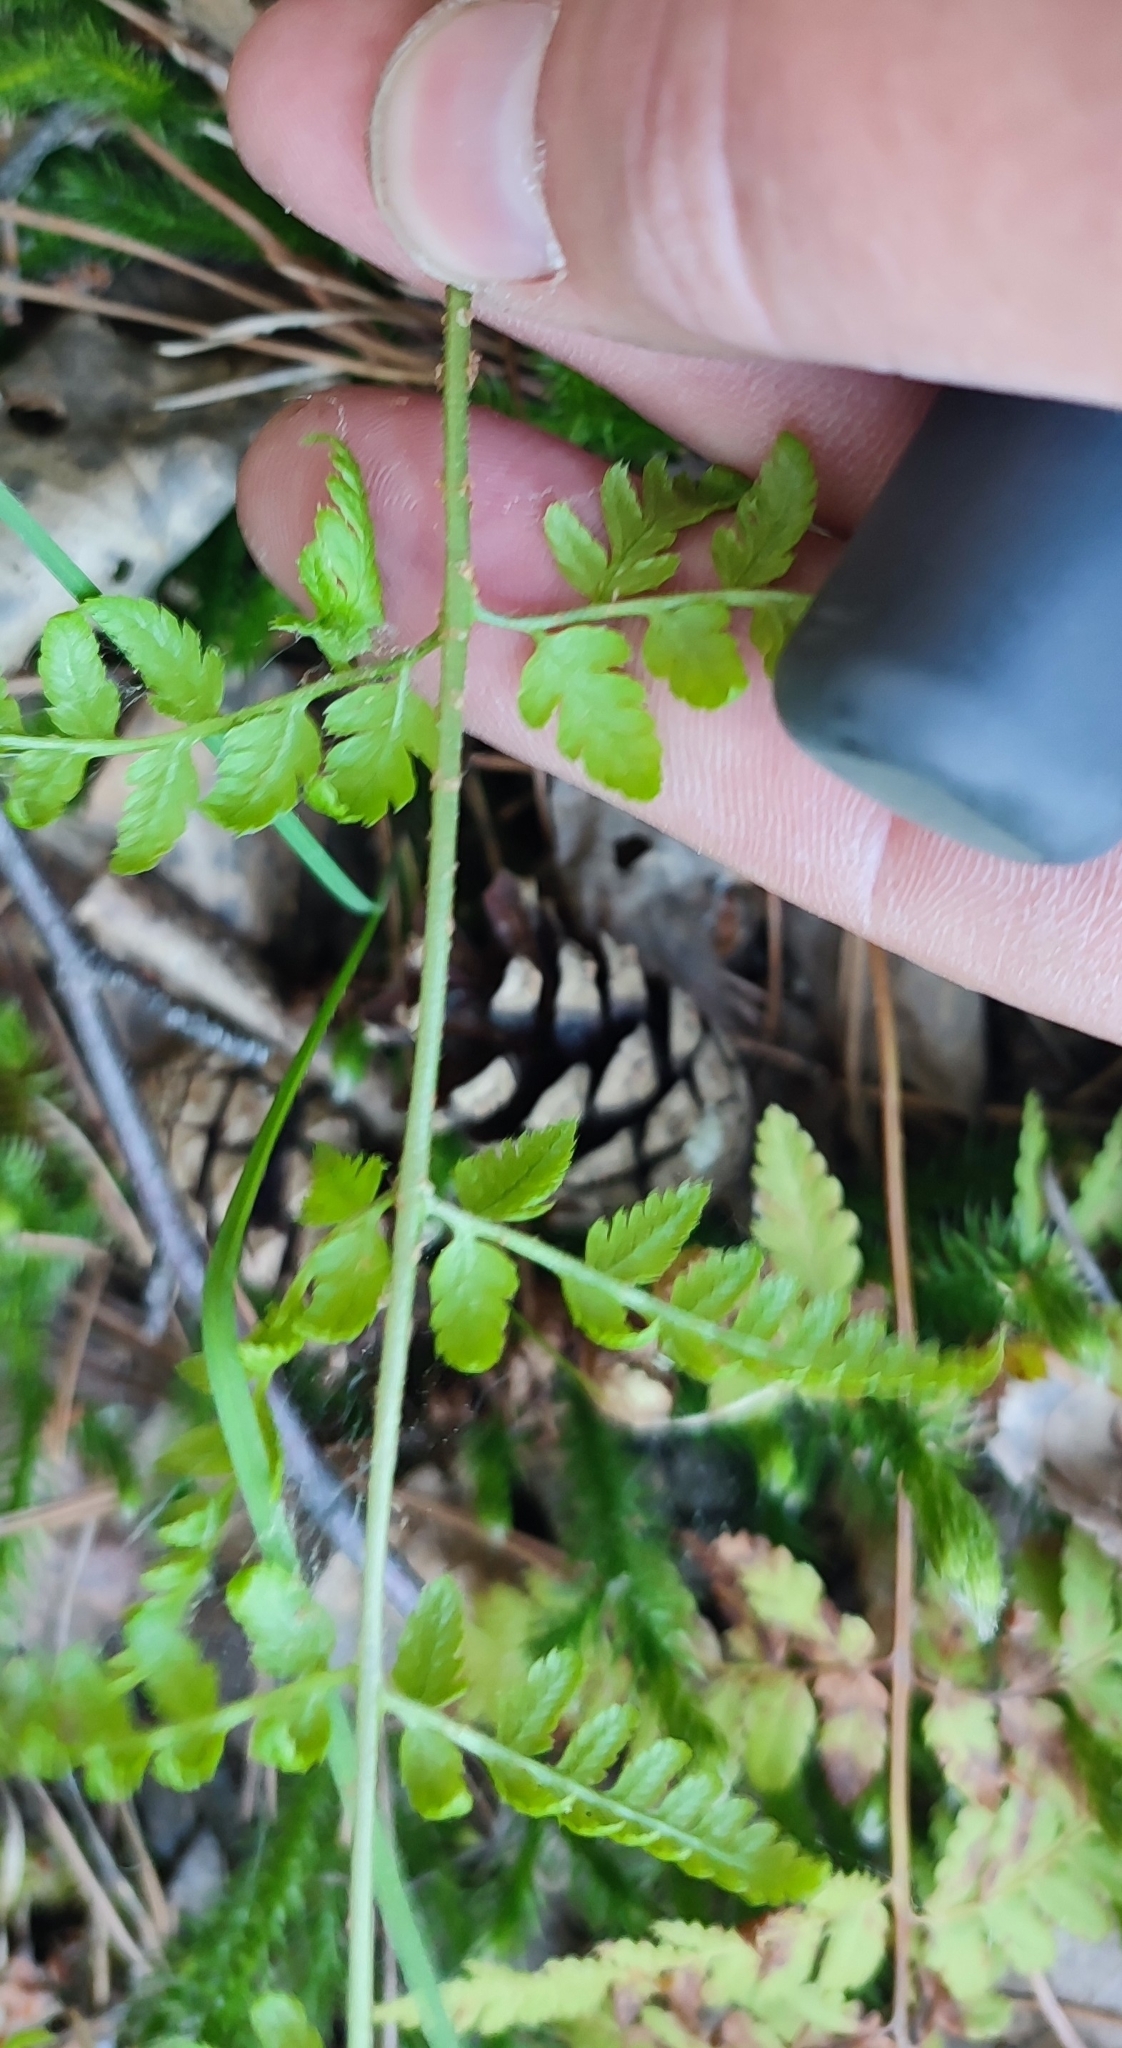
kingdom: Plantae
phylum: Tracheophyta
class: Polypodiopsida
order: Polypodiales
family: Dryopteridaceae
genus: Dryopteris
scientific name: Dryopteris carthusiana
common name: Narrow buckler-fern
